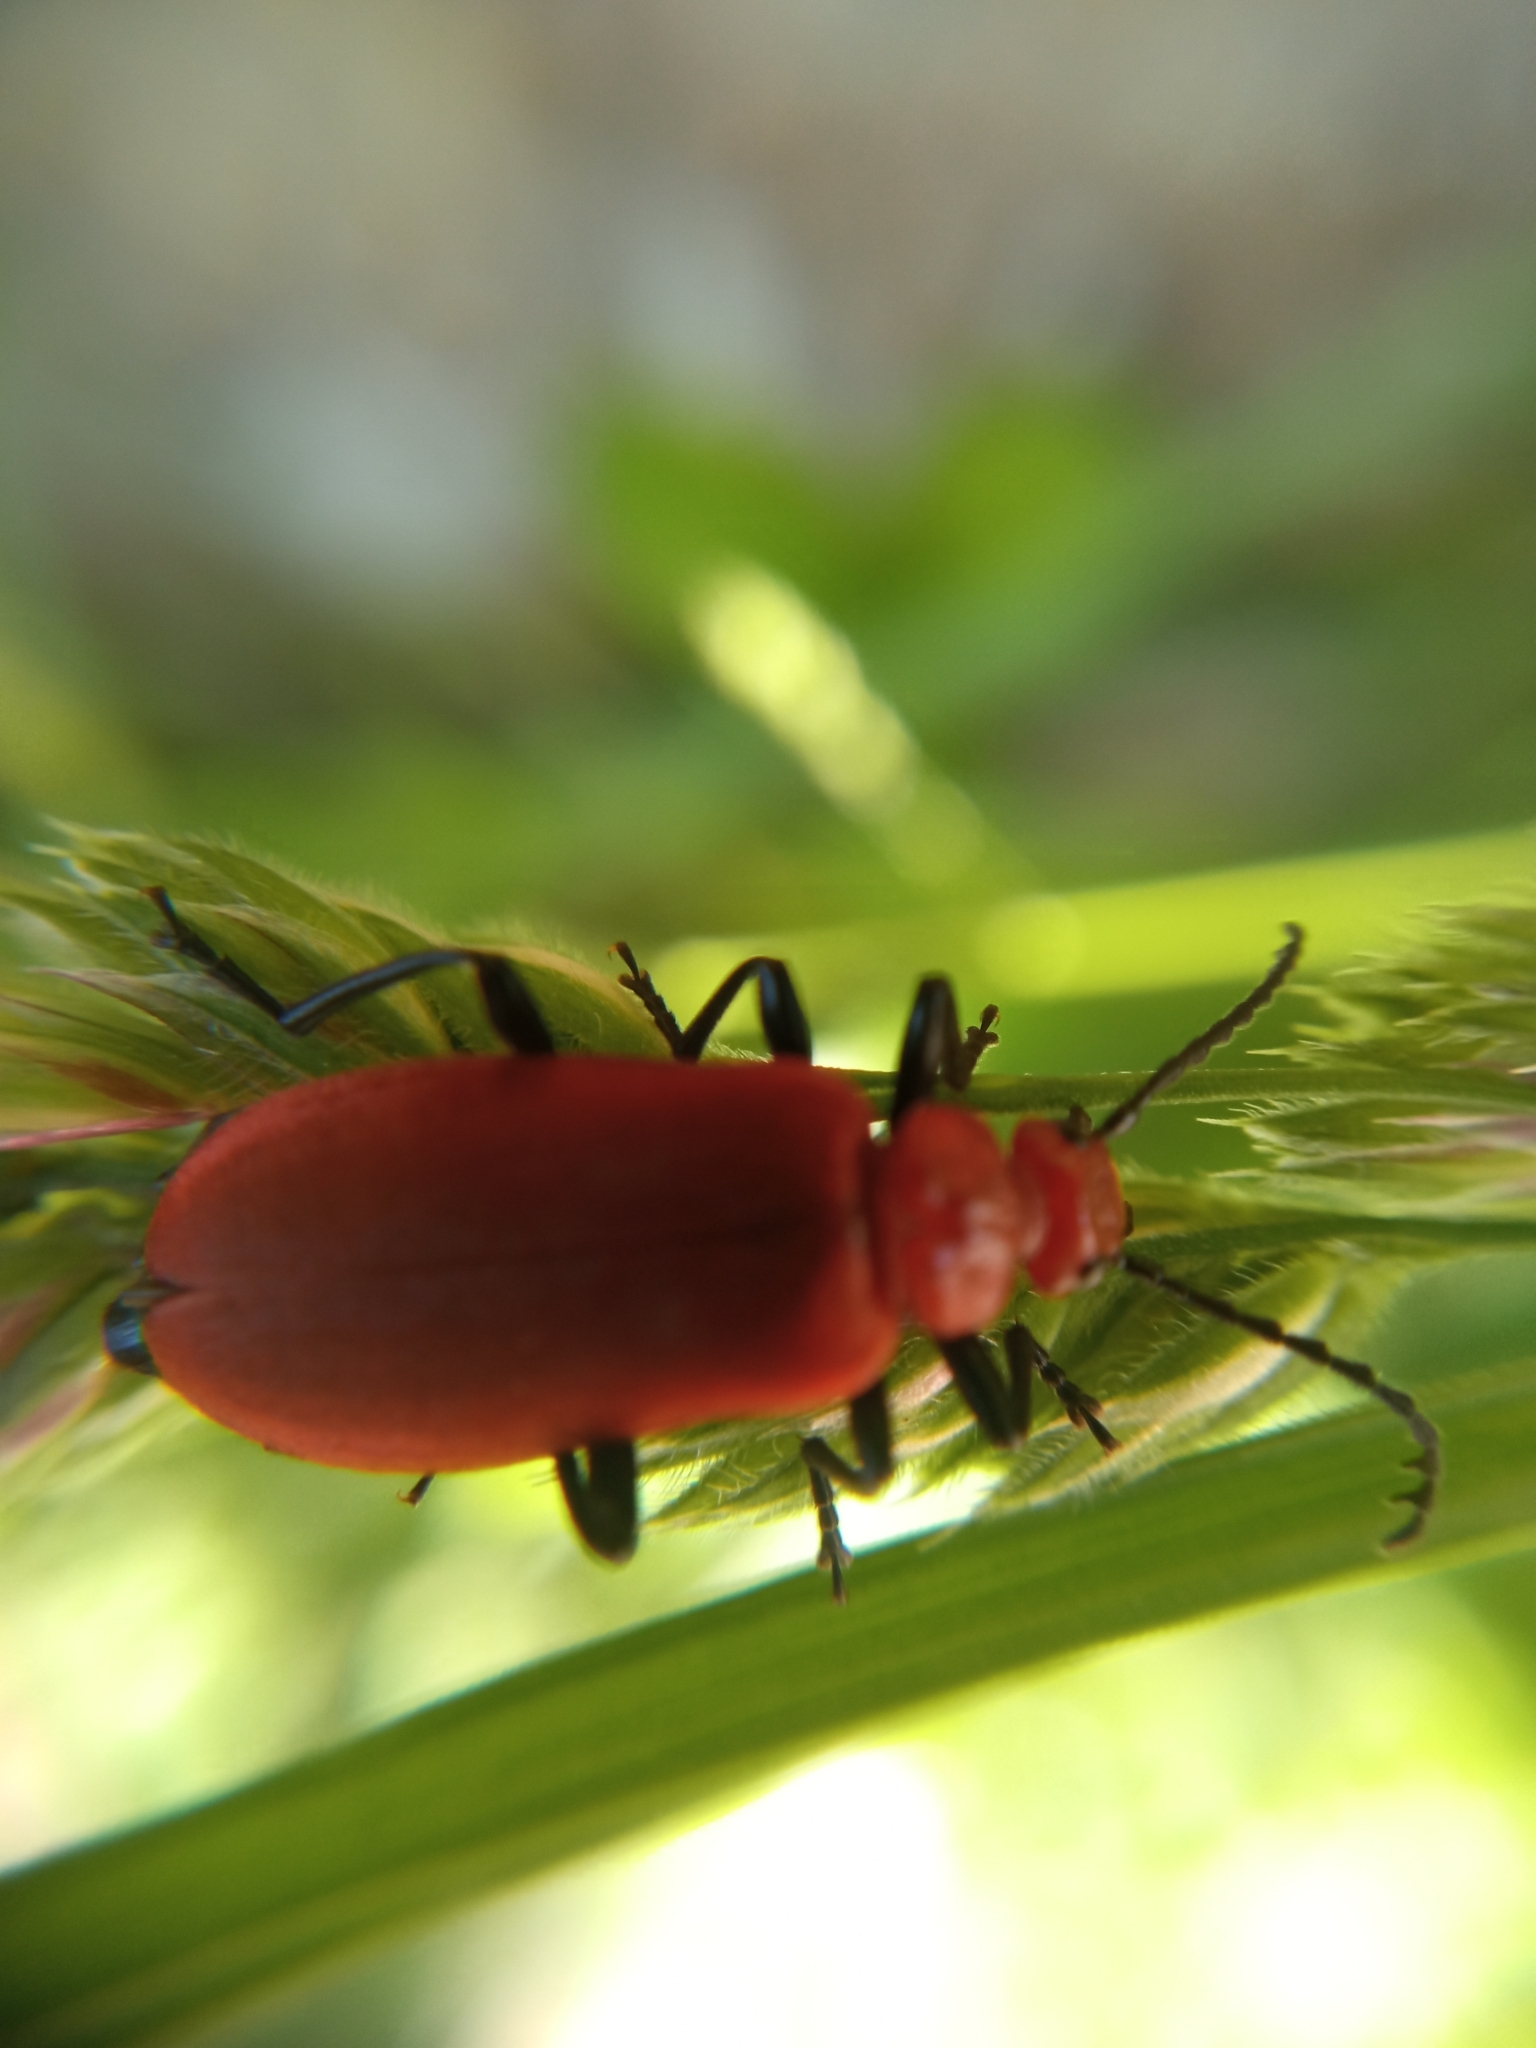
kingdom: Animalia
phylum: Arthropoda
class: Insecta
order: Coleoptera
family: Pyrochroidae
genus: Pyrochroa
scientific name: Pyrochroa serraticornis
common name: Red-headed cardinal beetle
